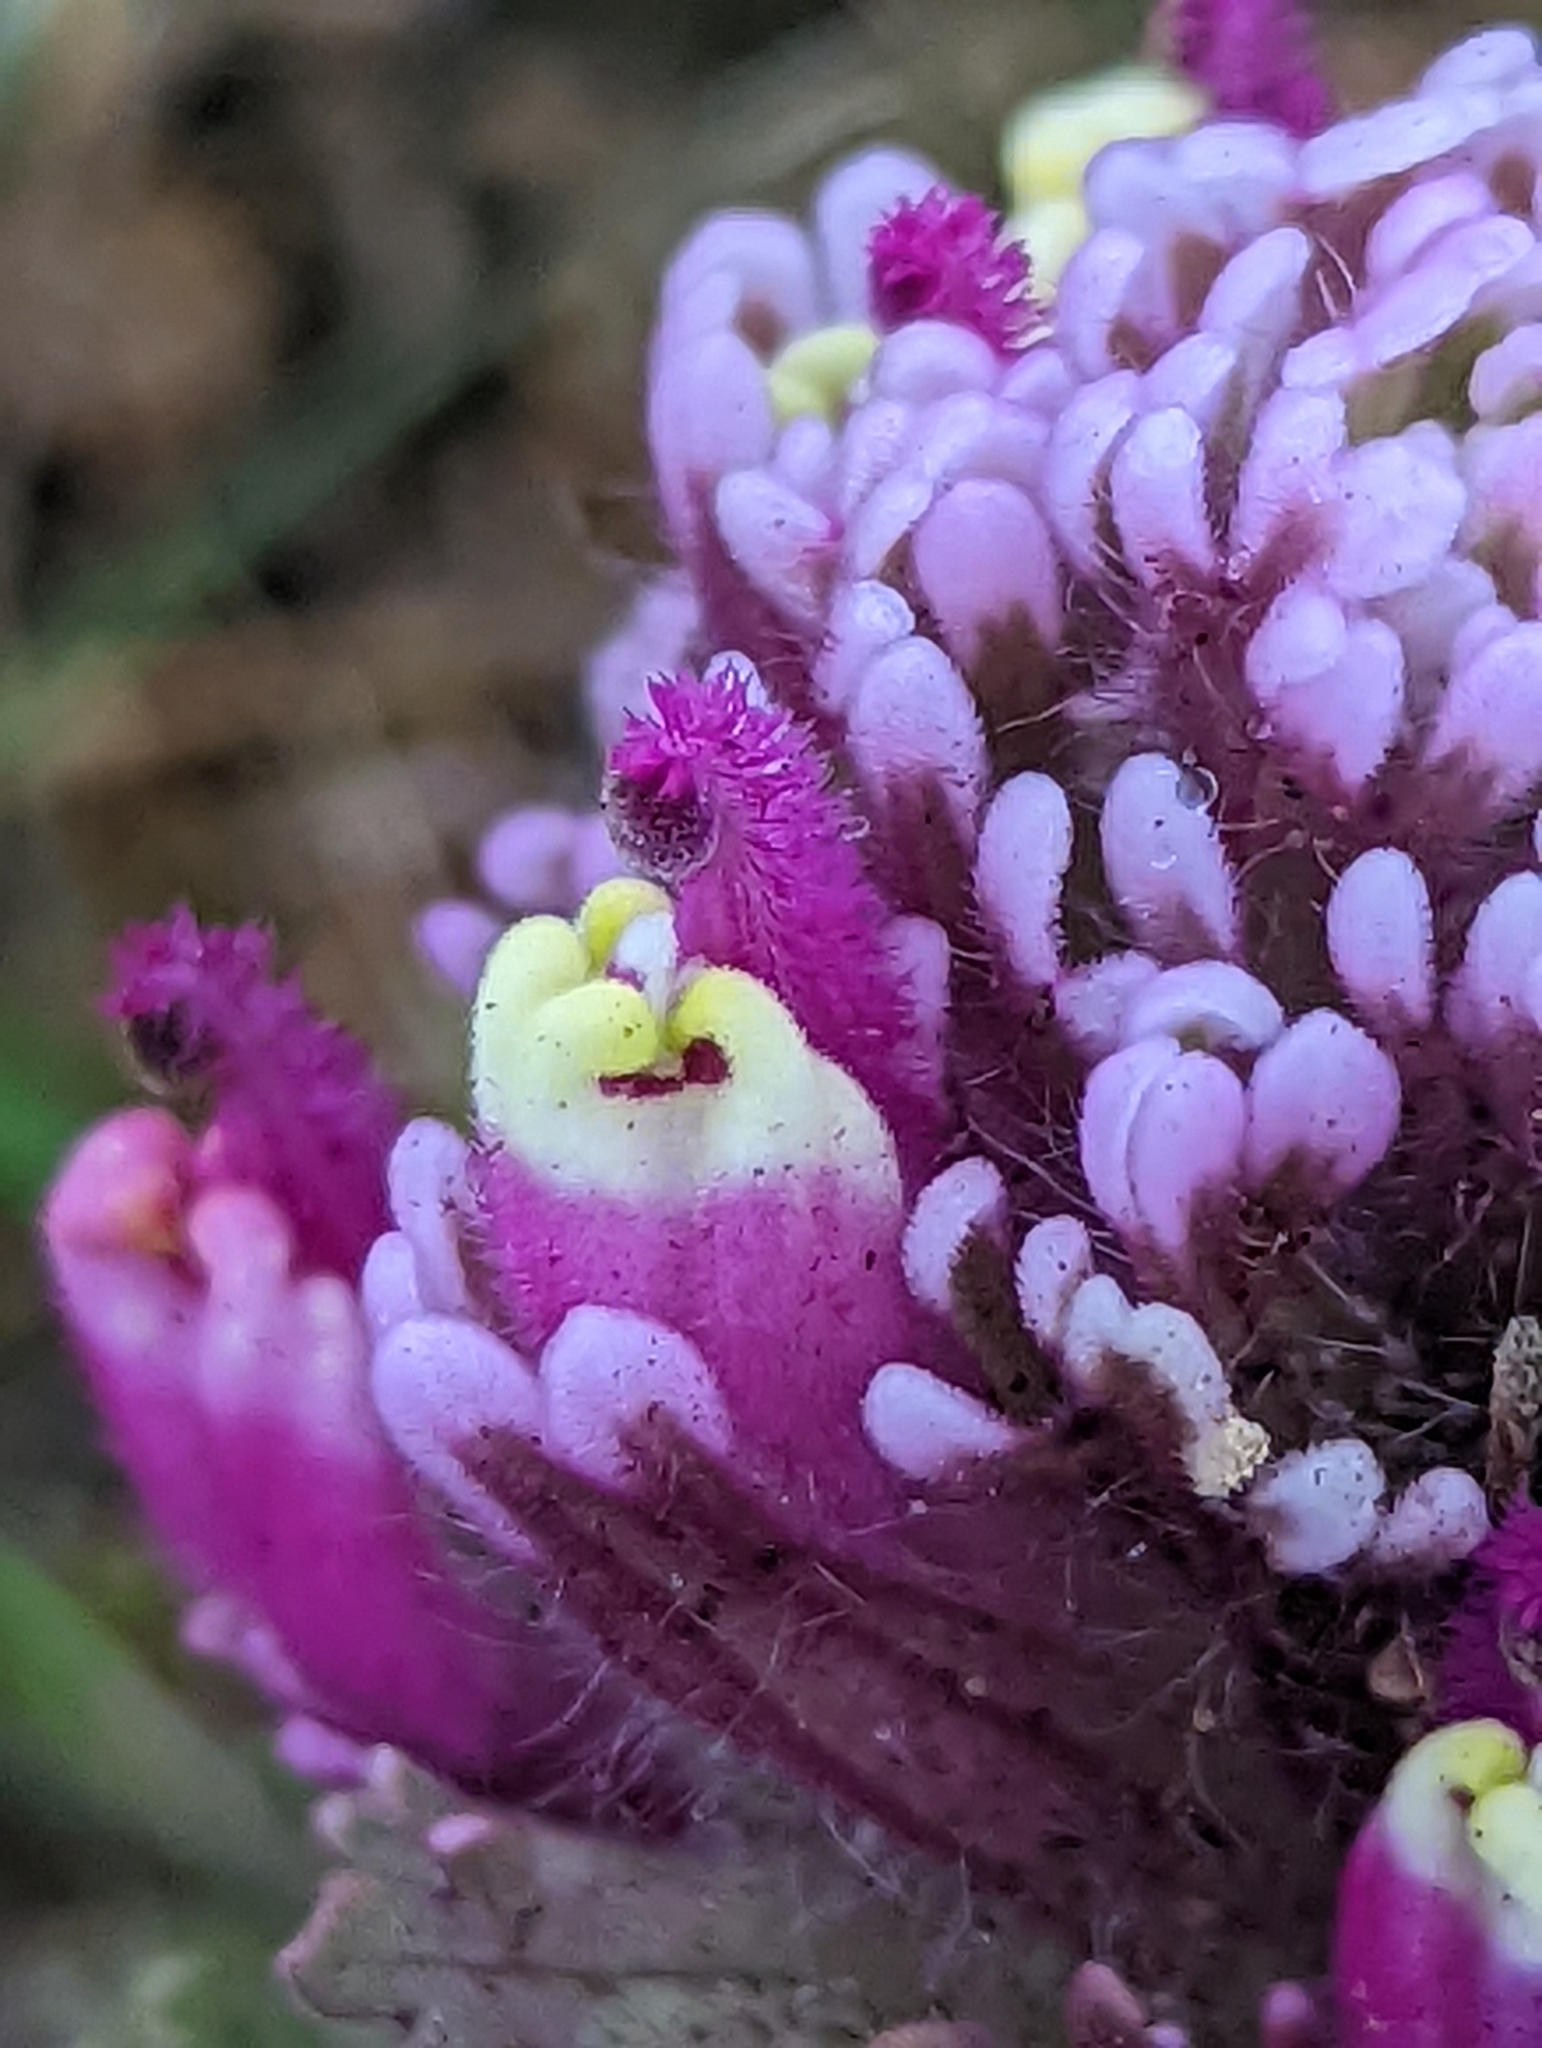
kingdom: Plantae
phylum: Tracheophyta
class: Magnoliopsida
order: Lamiales
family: Orobanchaceae
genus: Castilleja
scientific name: Castilleja exserta
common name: Purple owl-clover
